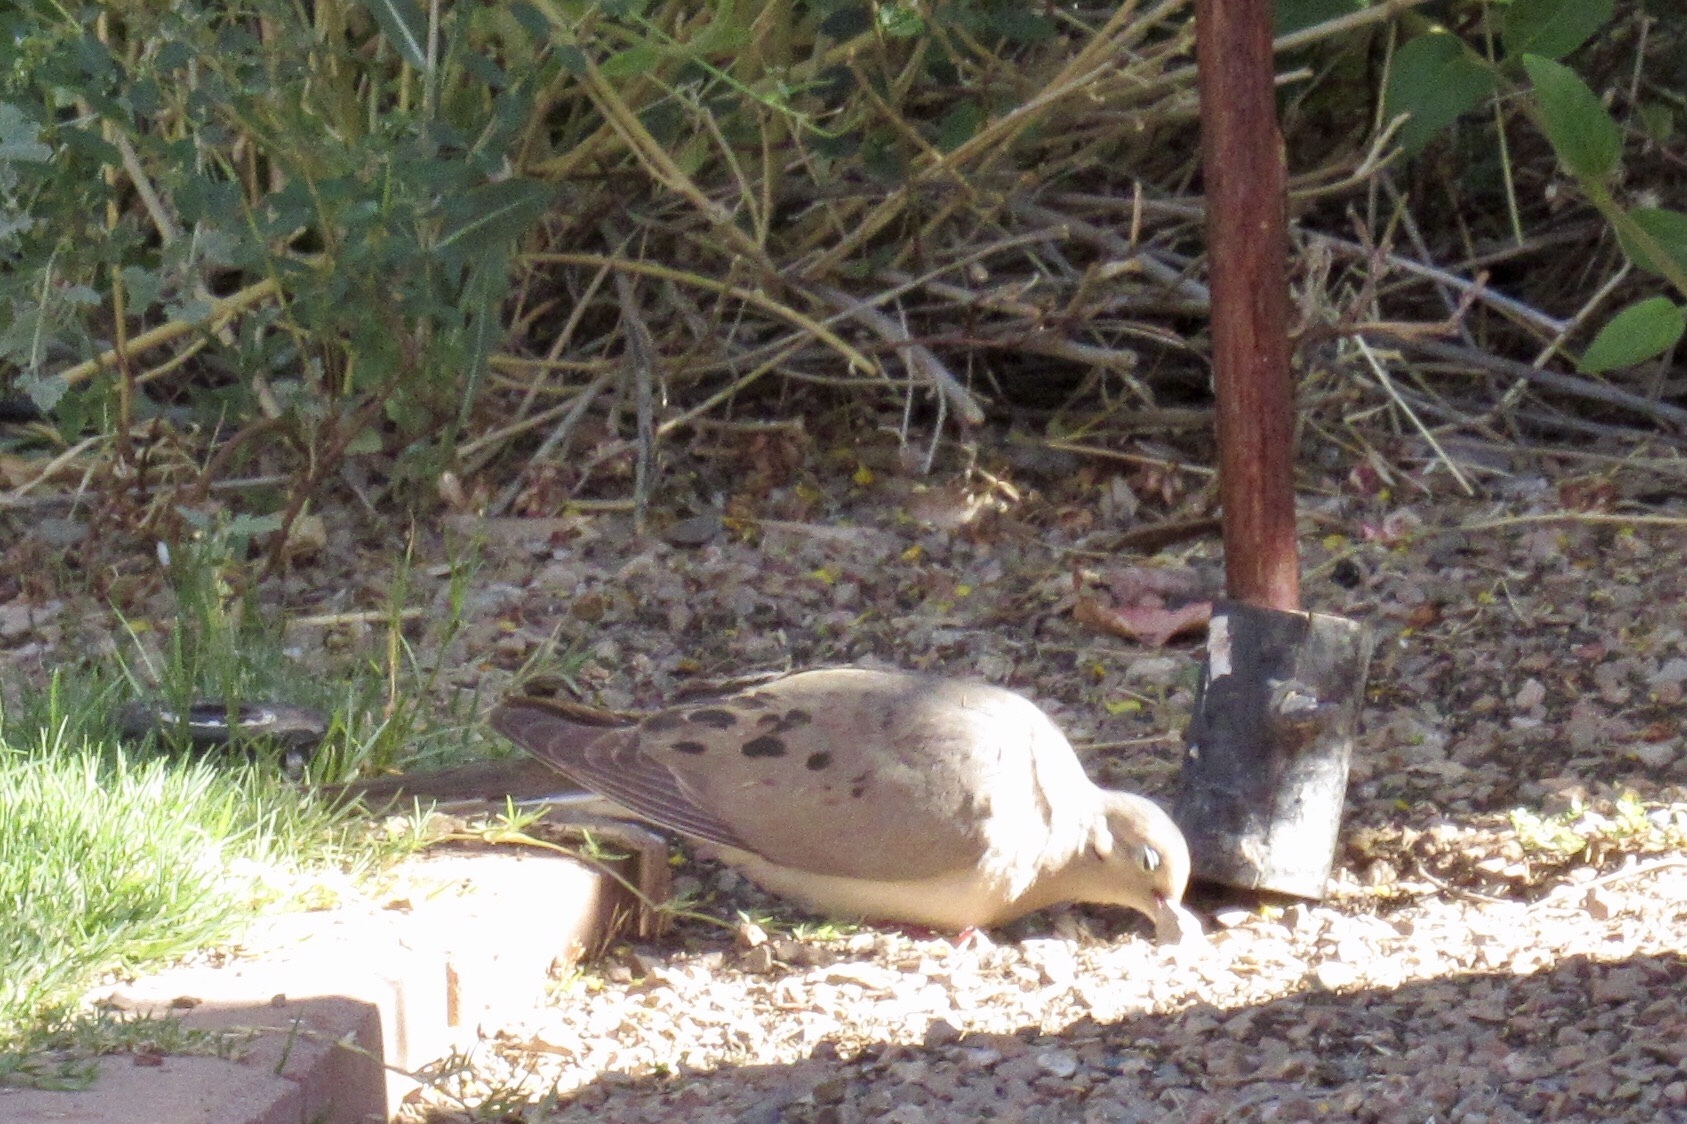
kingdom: Animalia
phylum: Chordata
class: Aves
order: Columbiformes
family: Columbidae
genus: Zenaida
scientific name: Zenaida macroura
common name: Mourning dove
